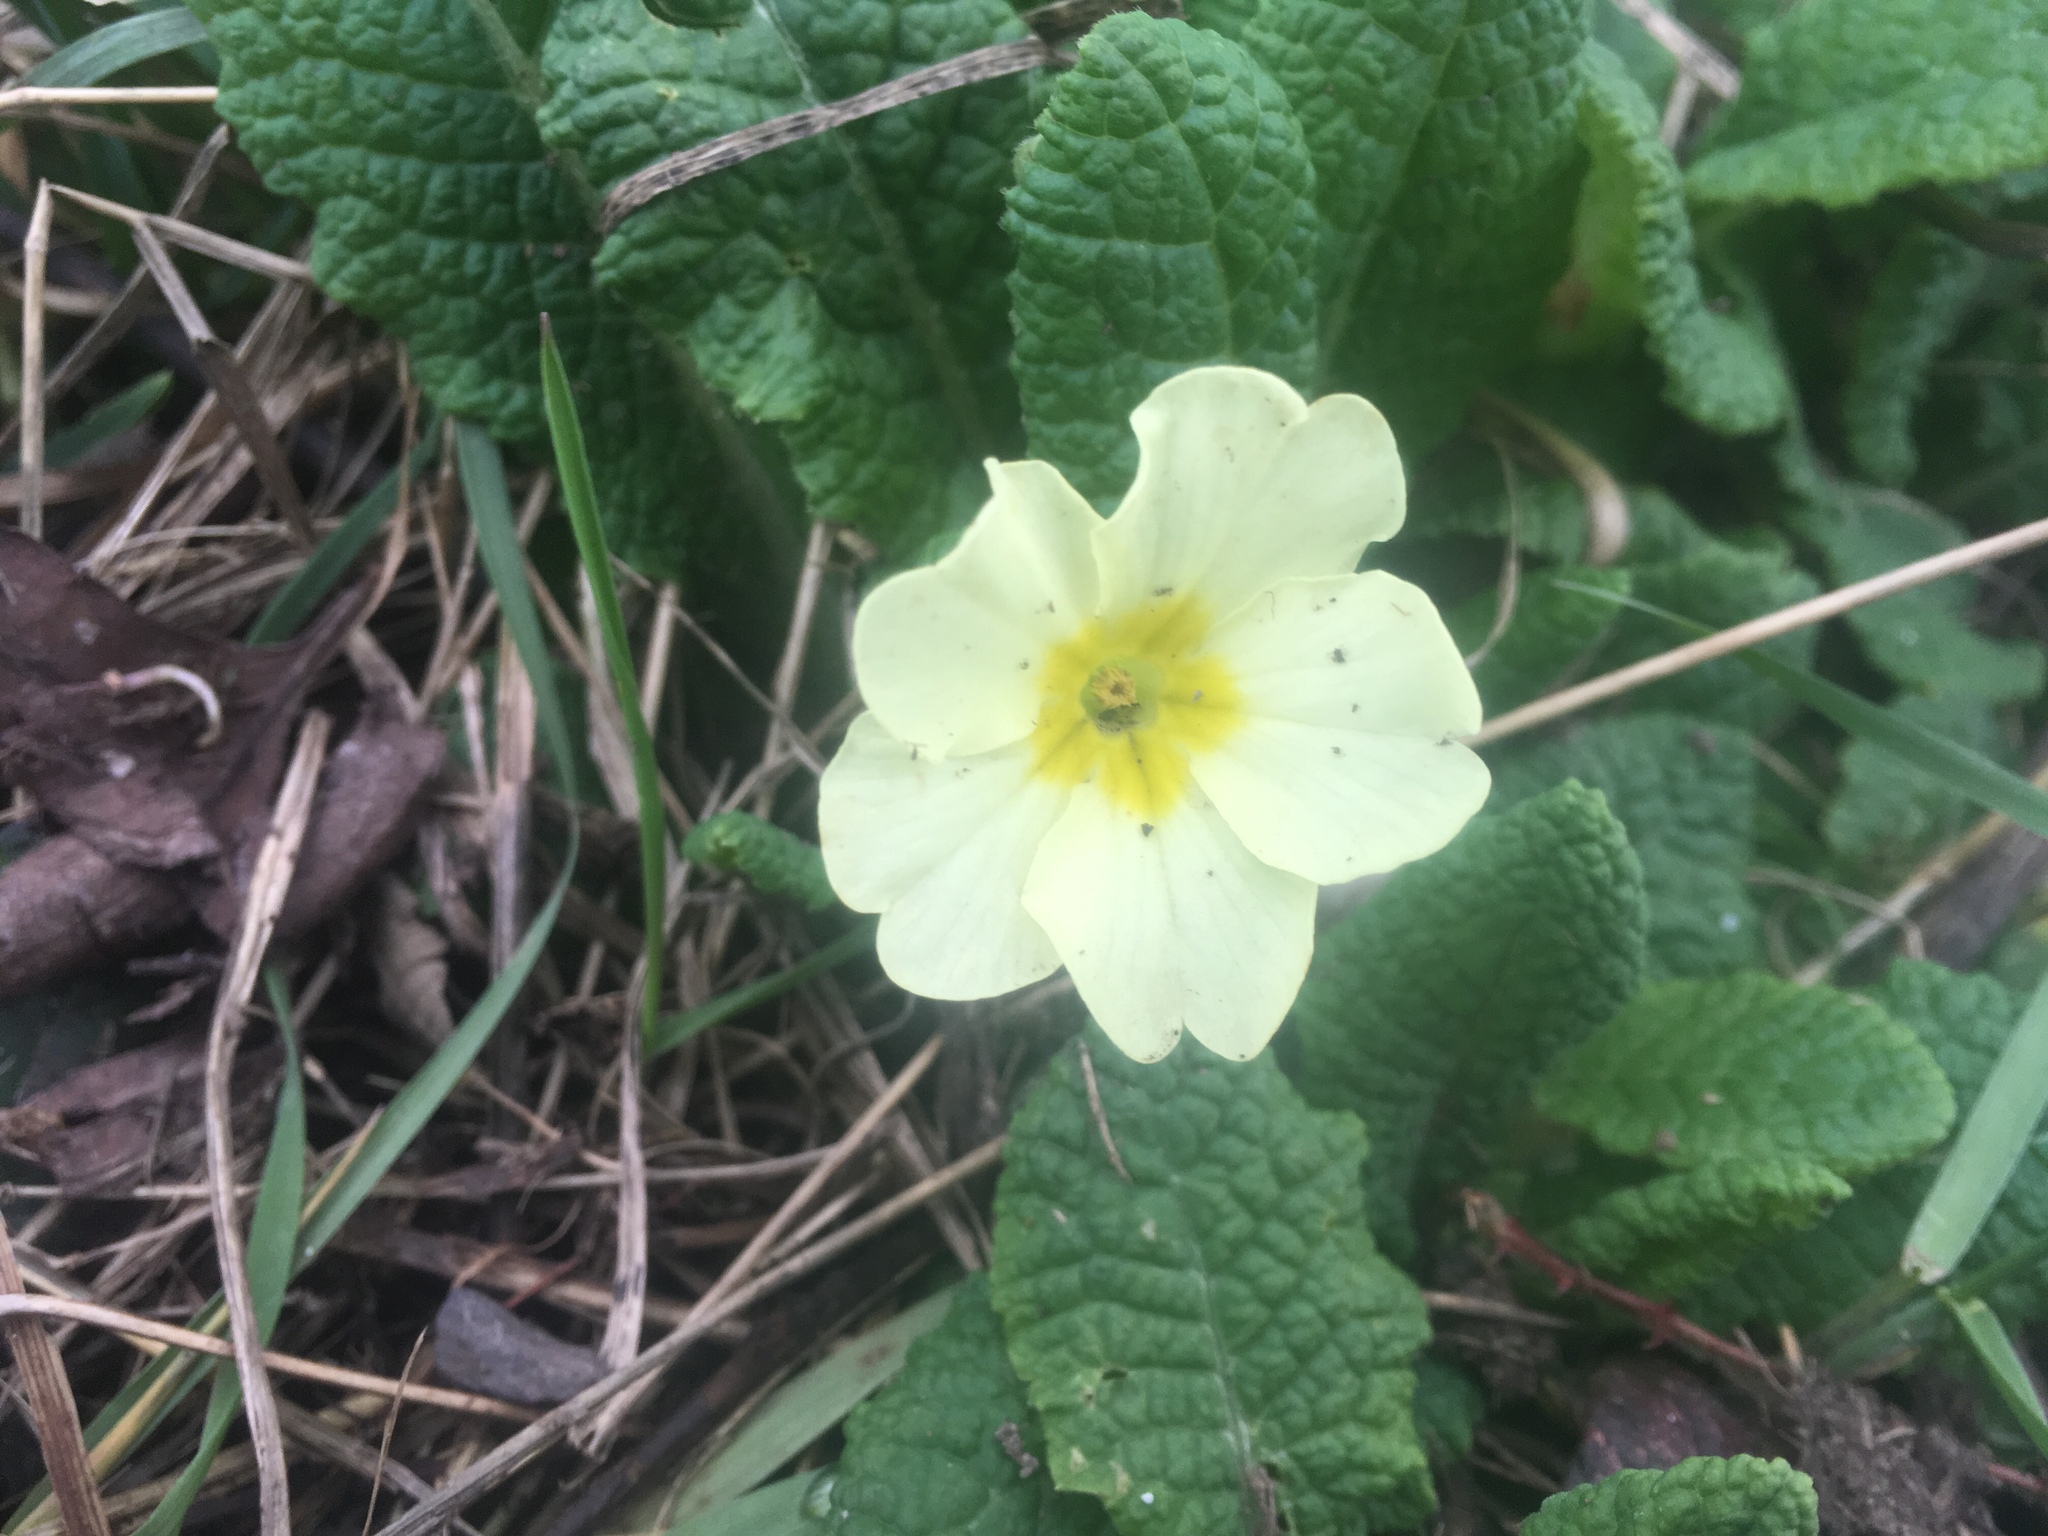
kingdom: Plantae
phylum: Tracheophyta
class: Magnoliopsida
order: Ericales
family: Primulaceae
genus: Primula
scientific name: Primula vulgaris
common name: Primrose
